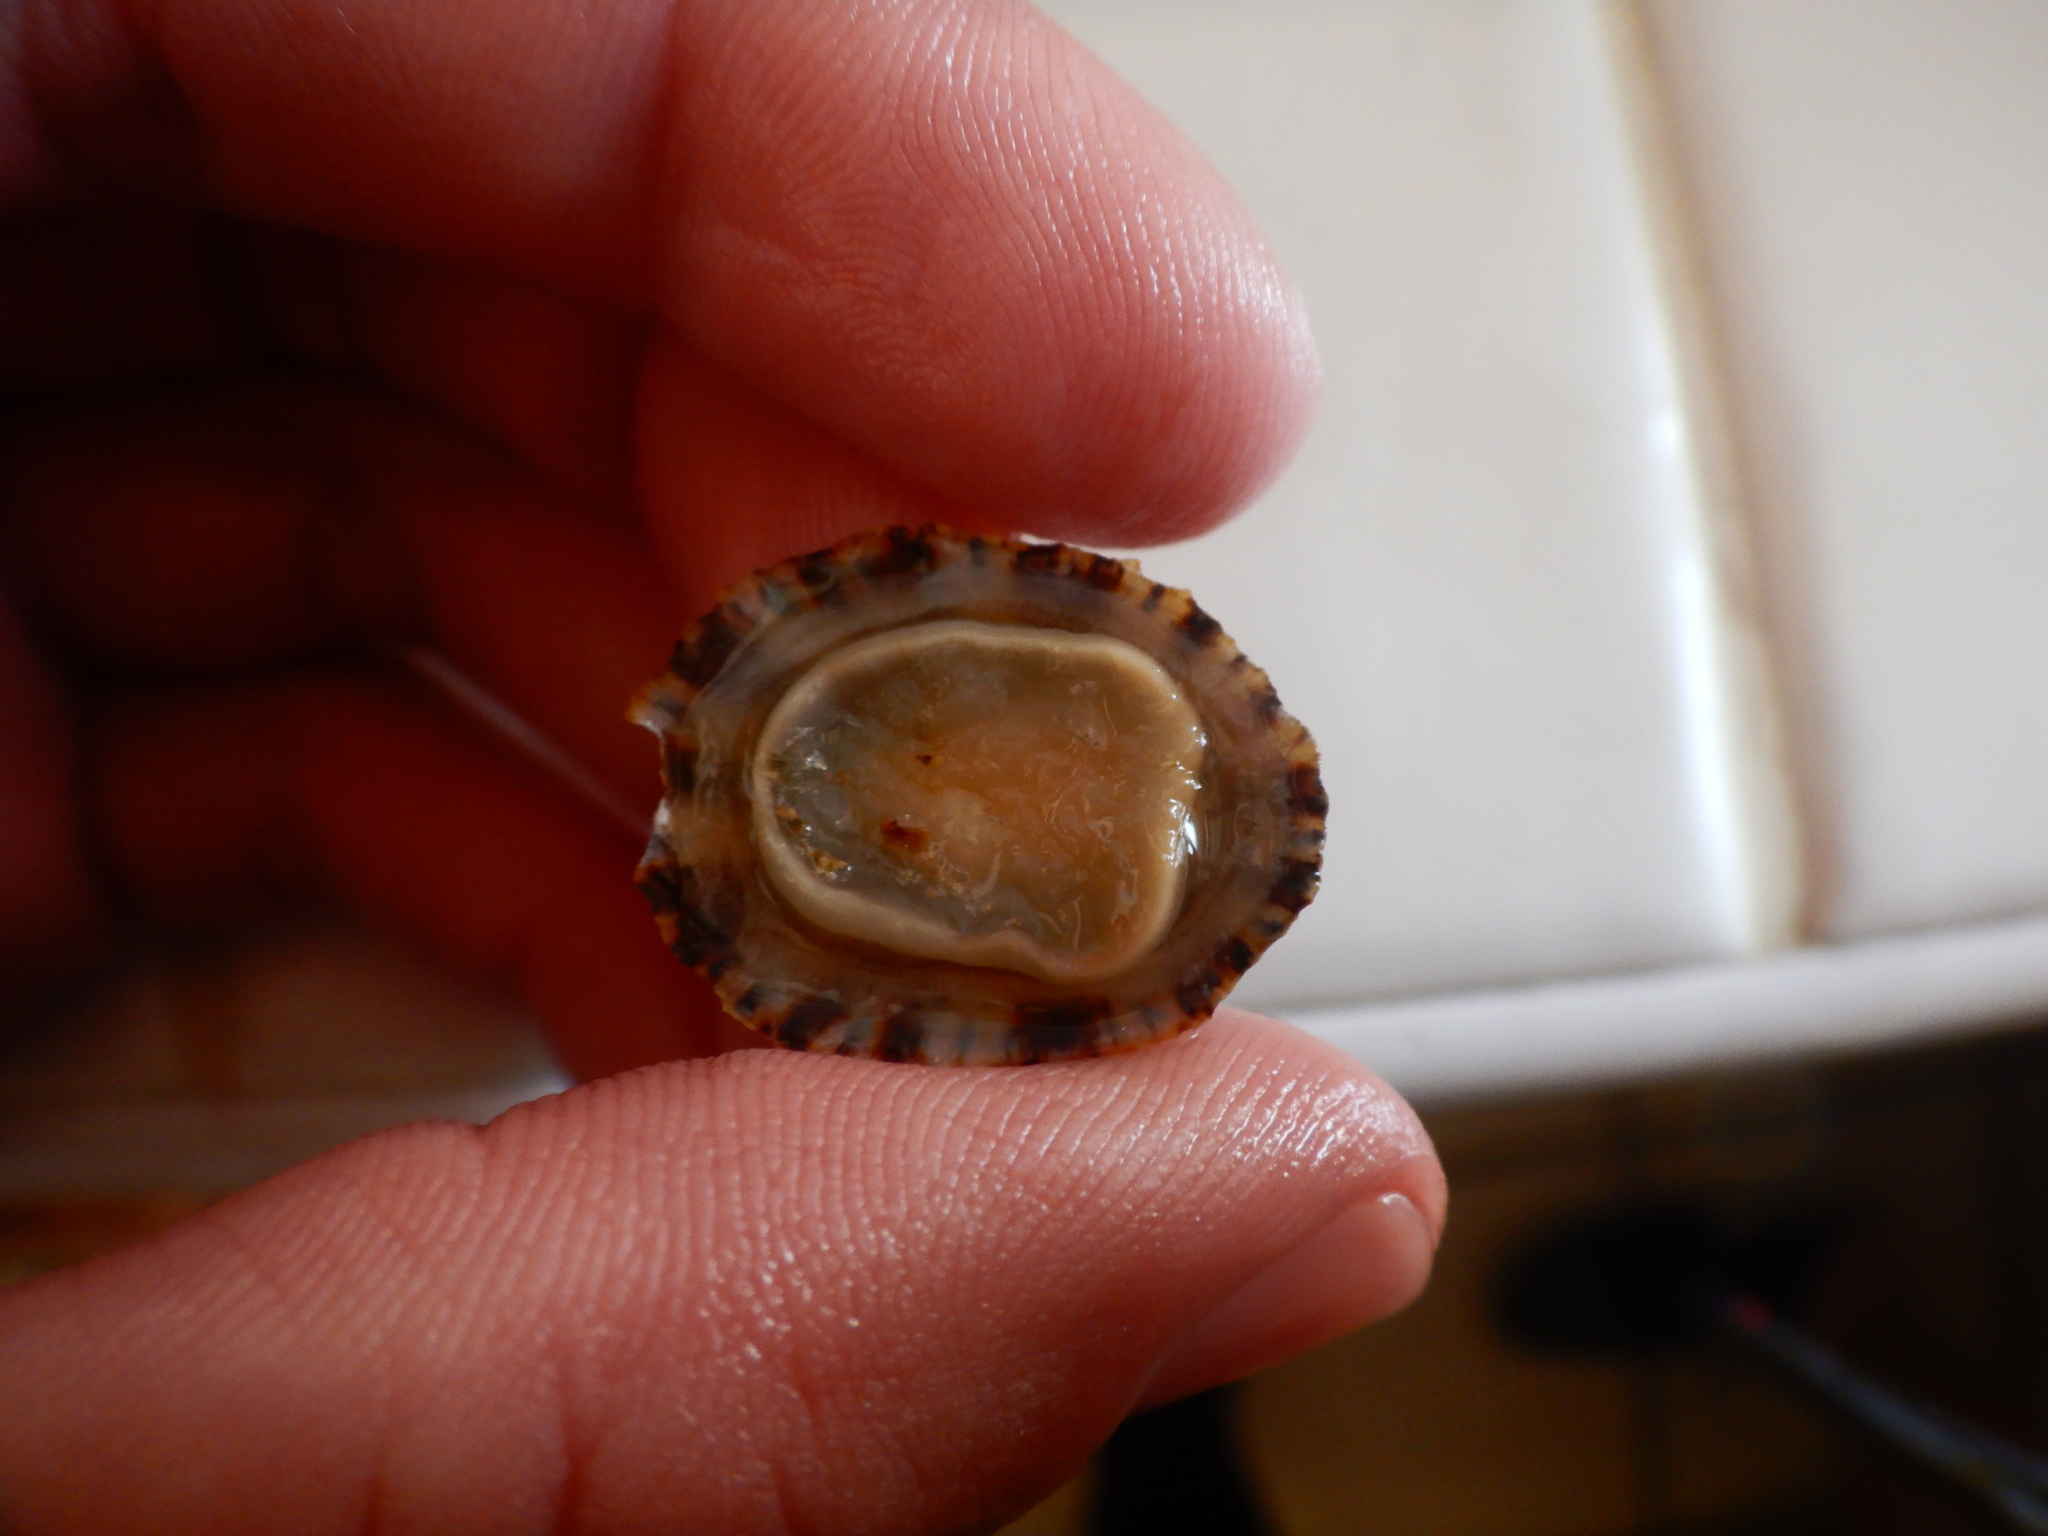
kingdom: Animalia
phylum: Mollusca
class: Gastropoda
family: Patellidae
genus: Patella
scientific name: Patella rustica
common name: Lusitanian limpet
